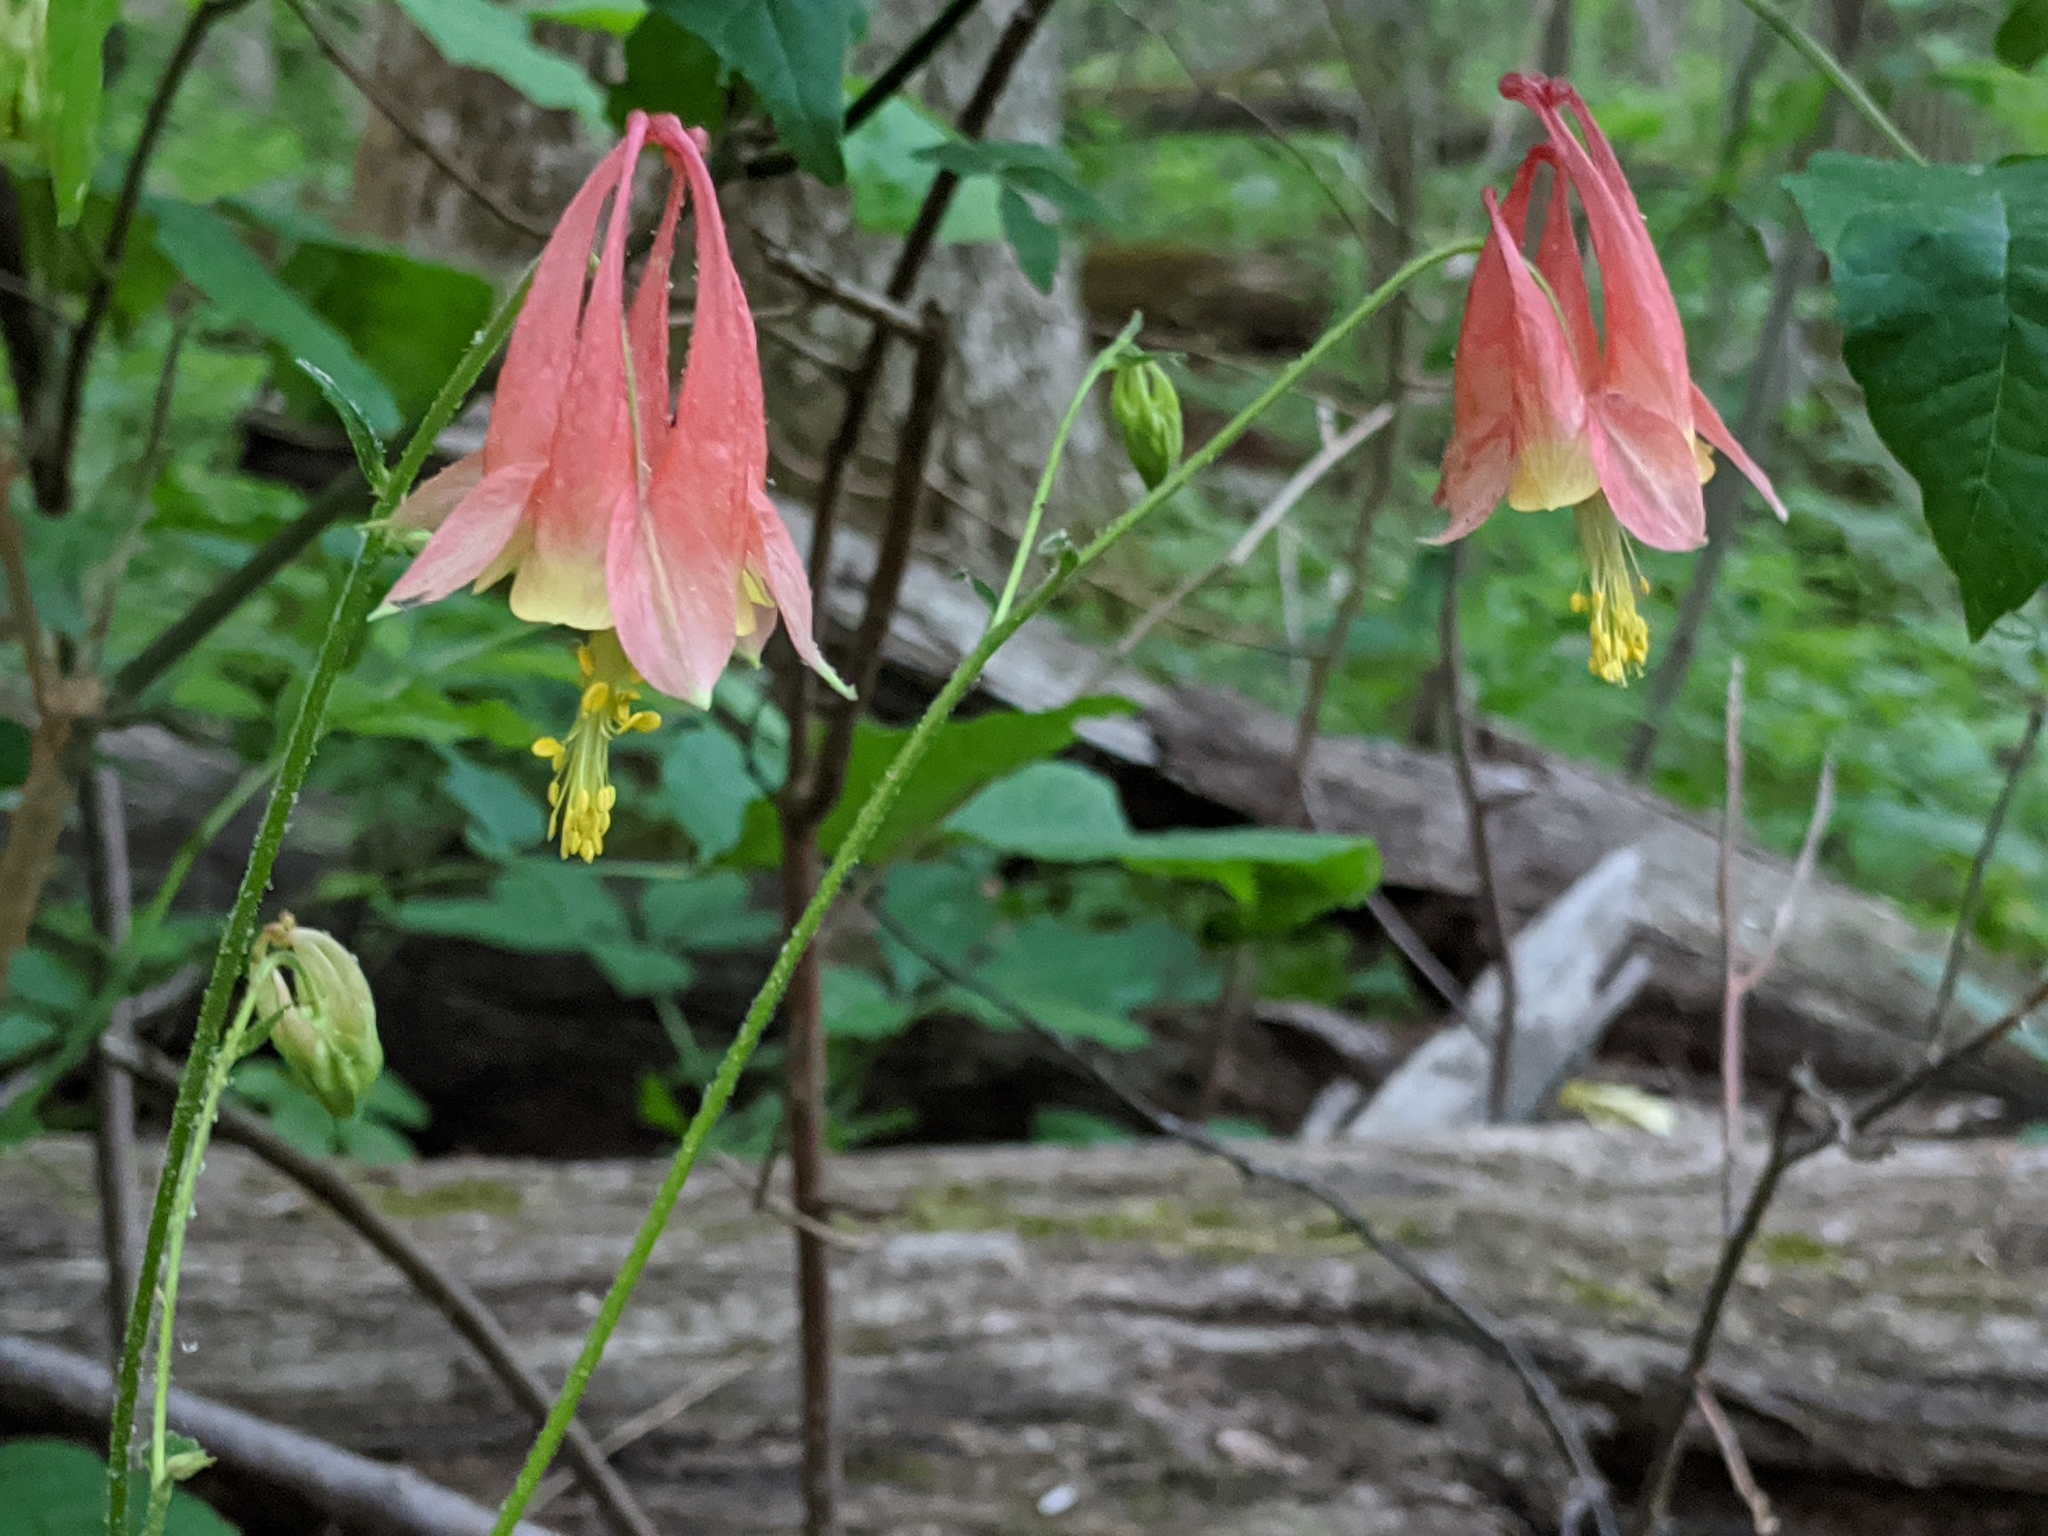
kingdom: Plantae
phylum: Tracheophyta
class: Magnoliopsida
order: Ranunculales
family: Ranunculaceae
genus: Aquilegia
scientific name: Aquilegia canadensis
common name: American columbine
